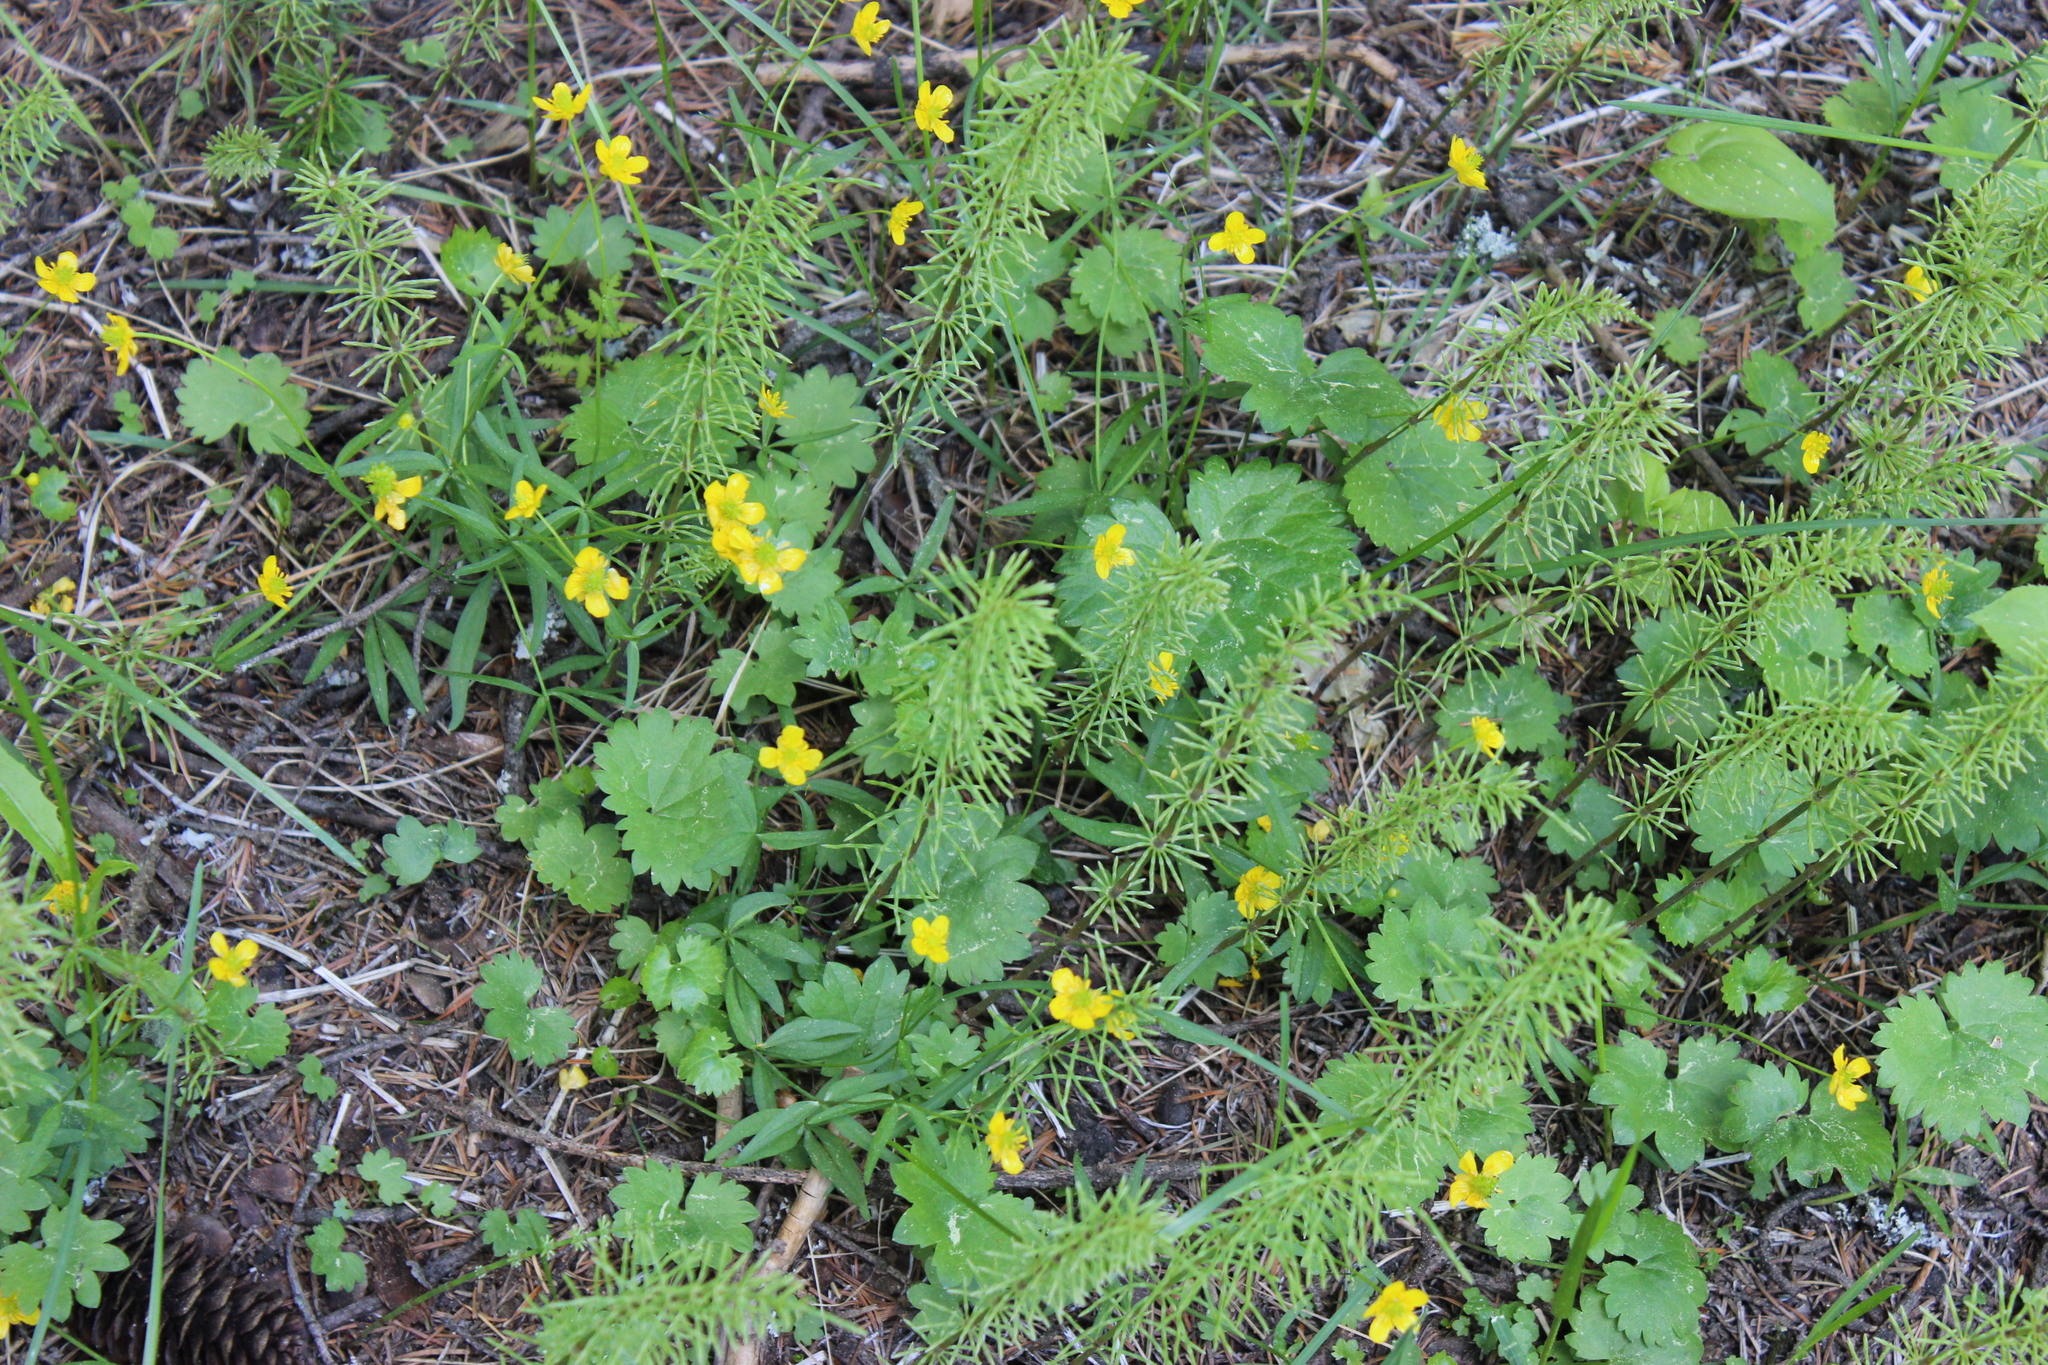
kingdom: Plantae
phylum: Tracheophyta
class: Magnoliopsida
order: Ranunculales
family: Ranunculaceae
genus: Ranunculus
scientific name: Ranunculus monophyllus
